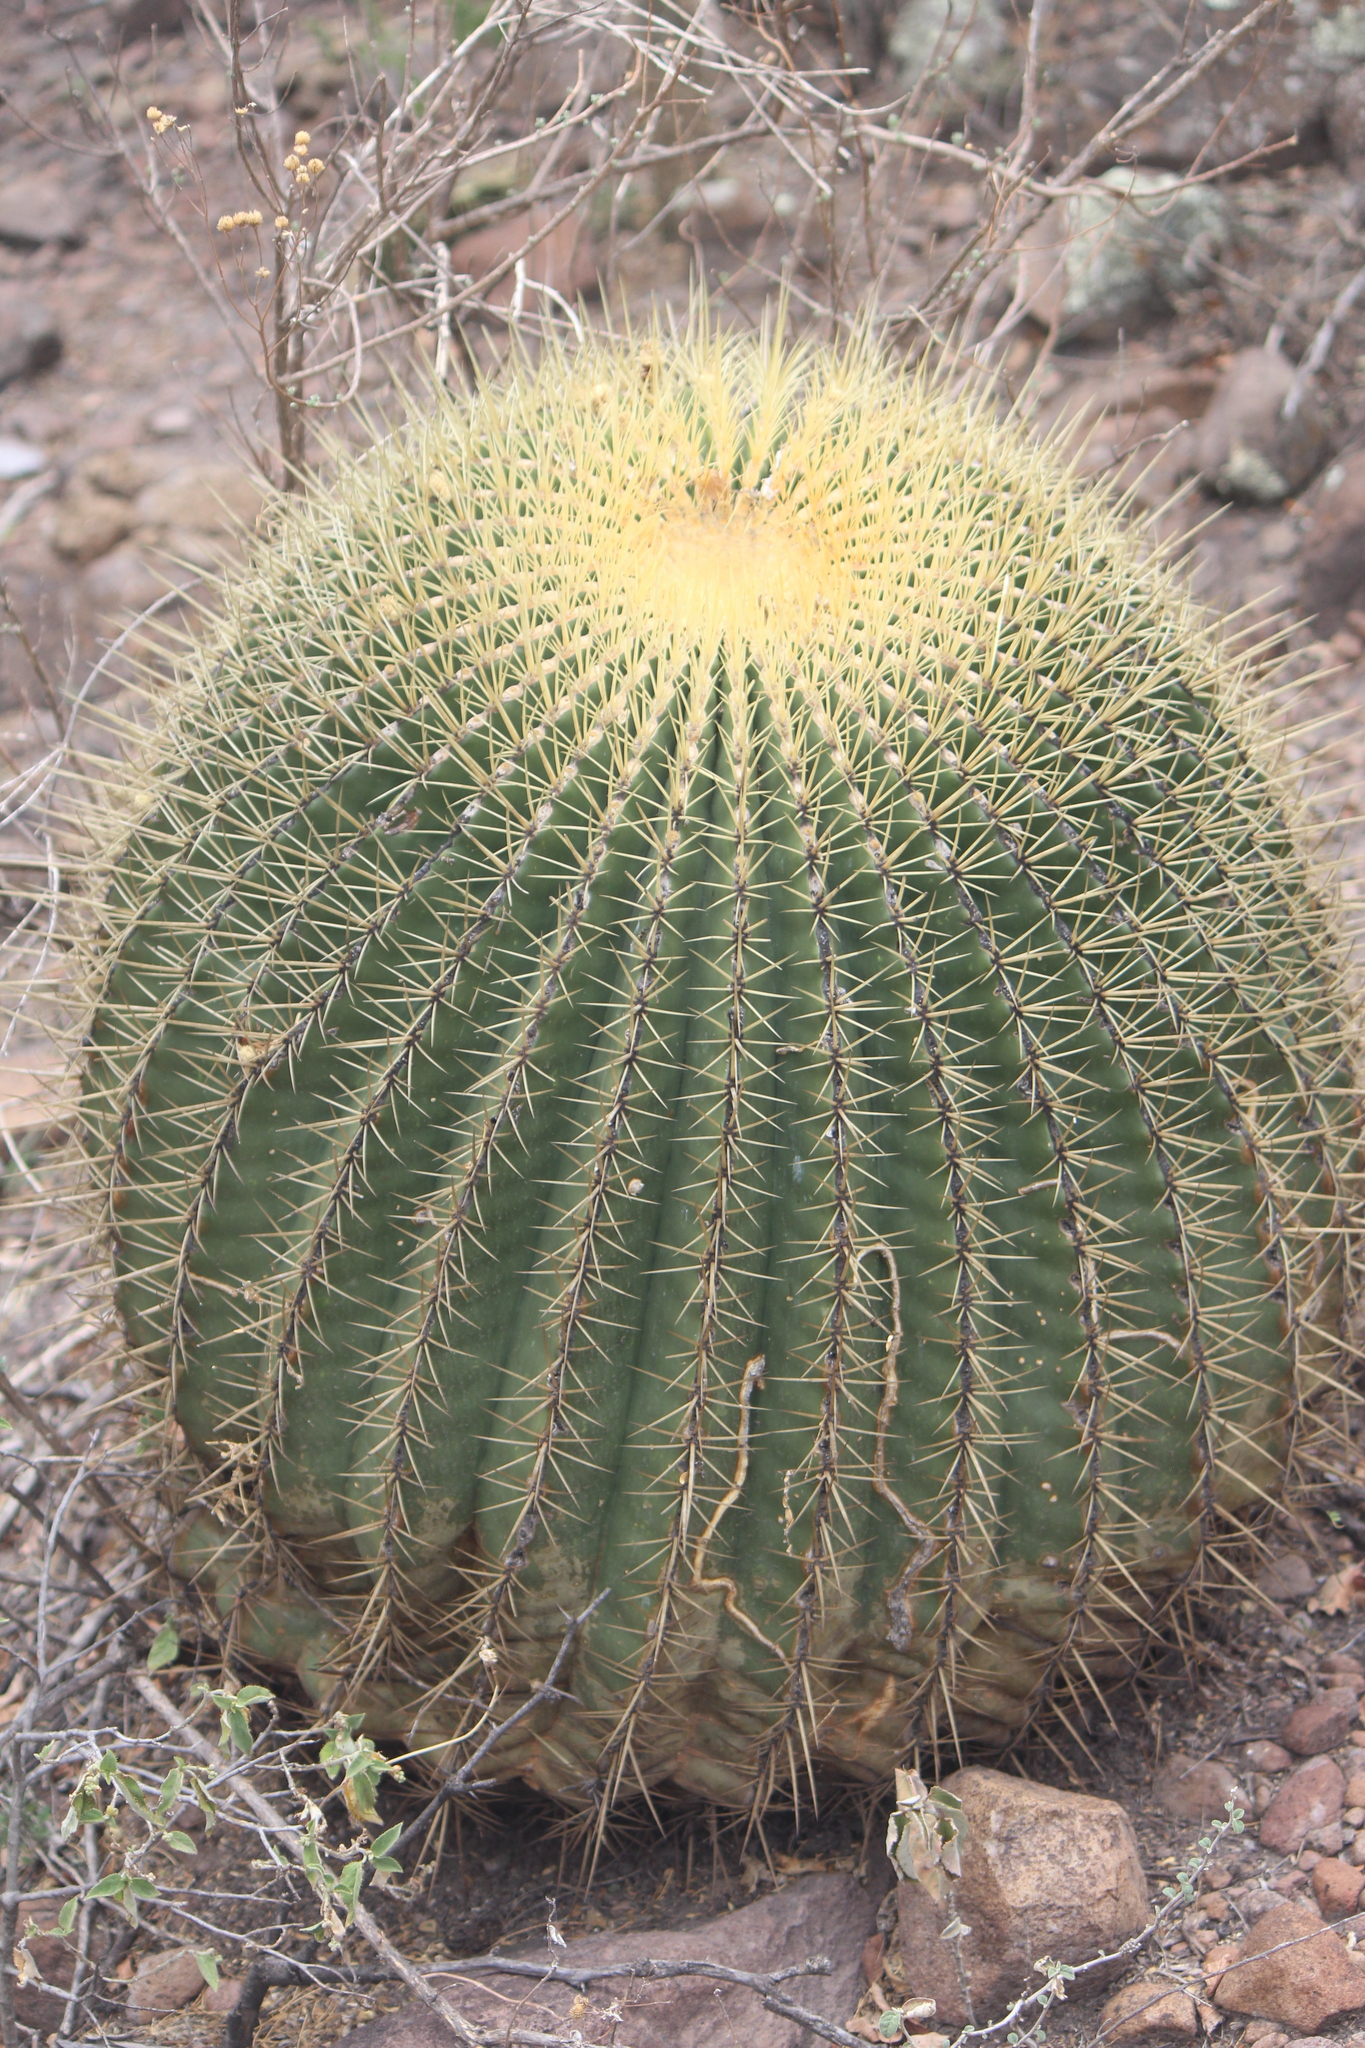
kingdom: Plantae
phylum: Tracheophyta
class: Magnoliopsida
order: Caryophyllales
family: Cactaceae
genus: Bisnaga
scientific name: Bisnaga histrix
